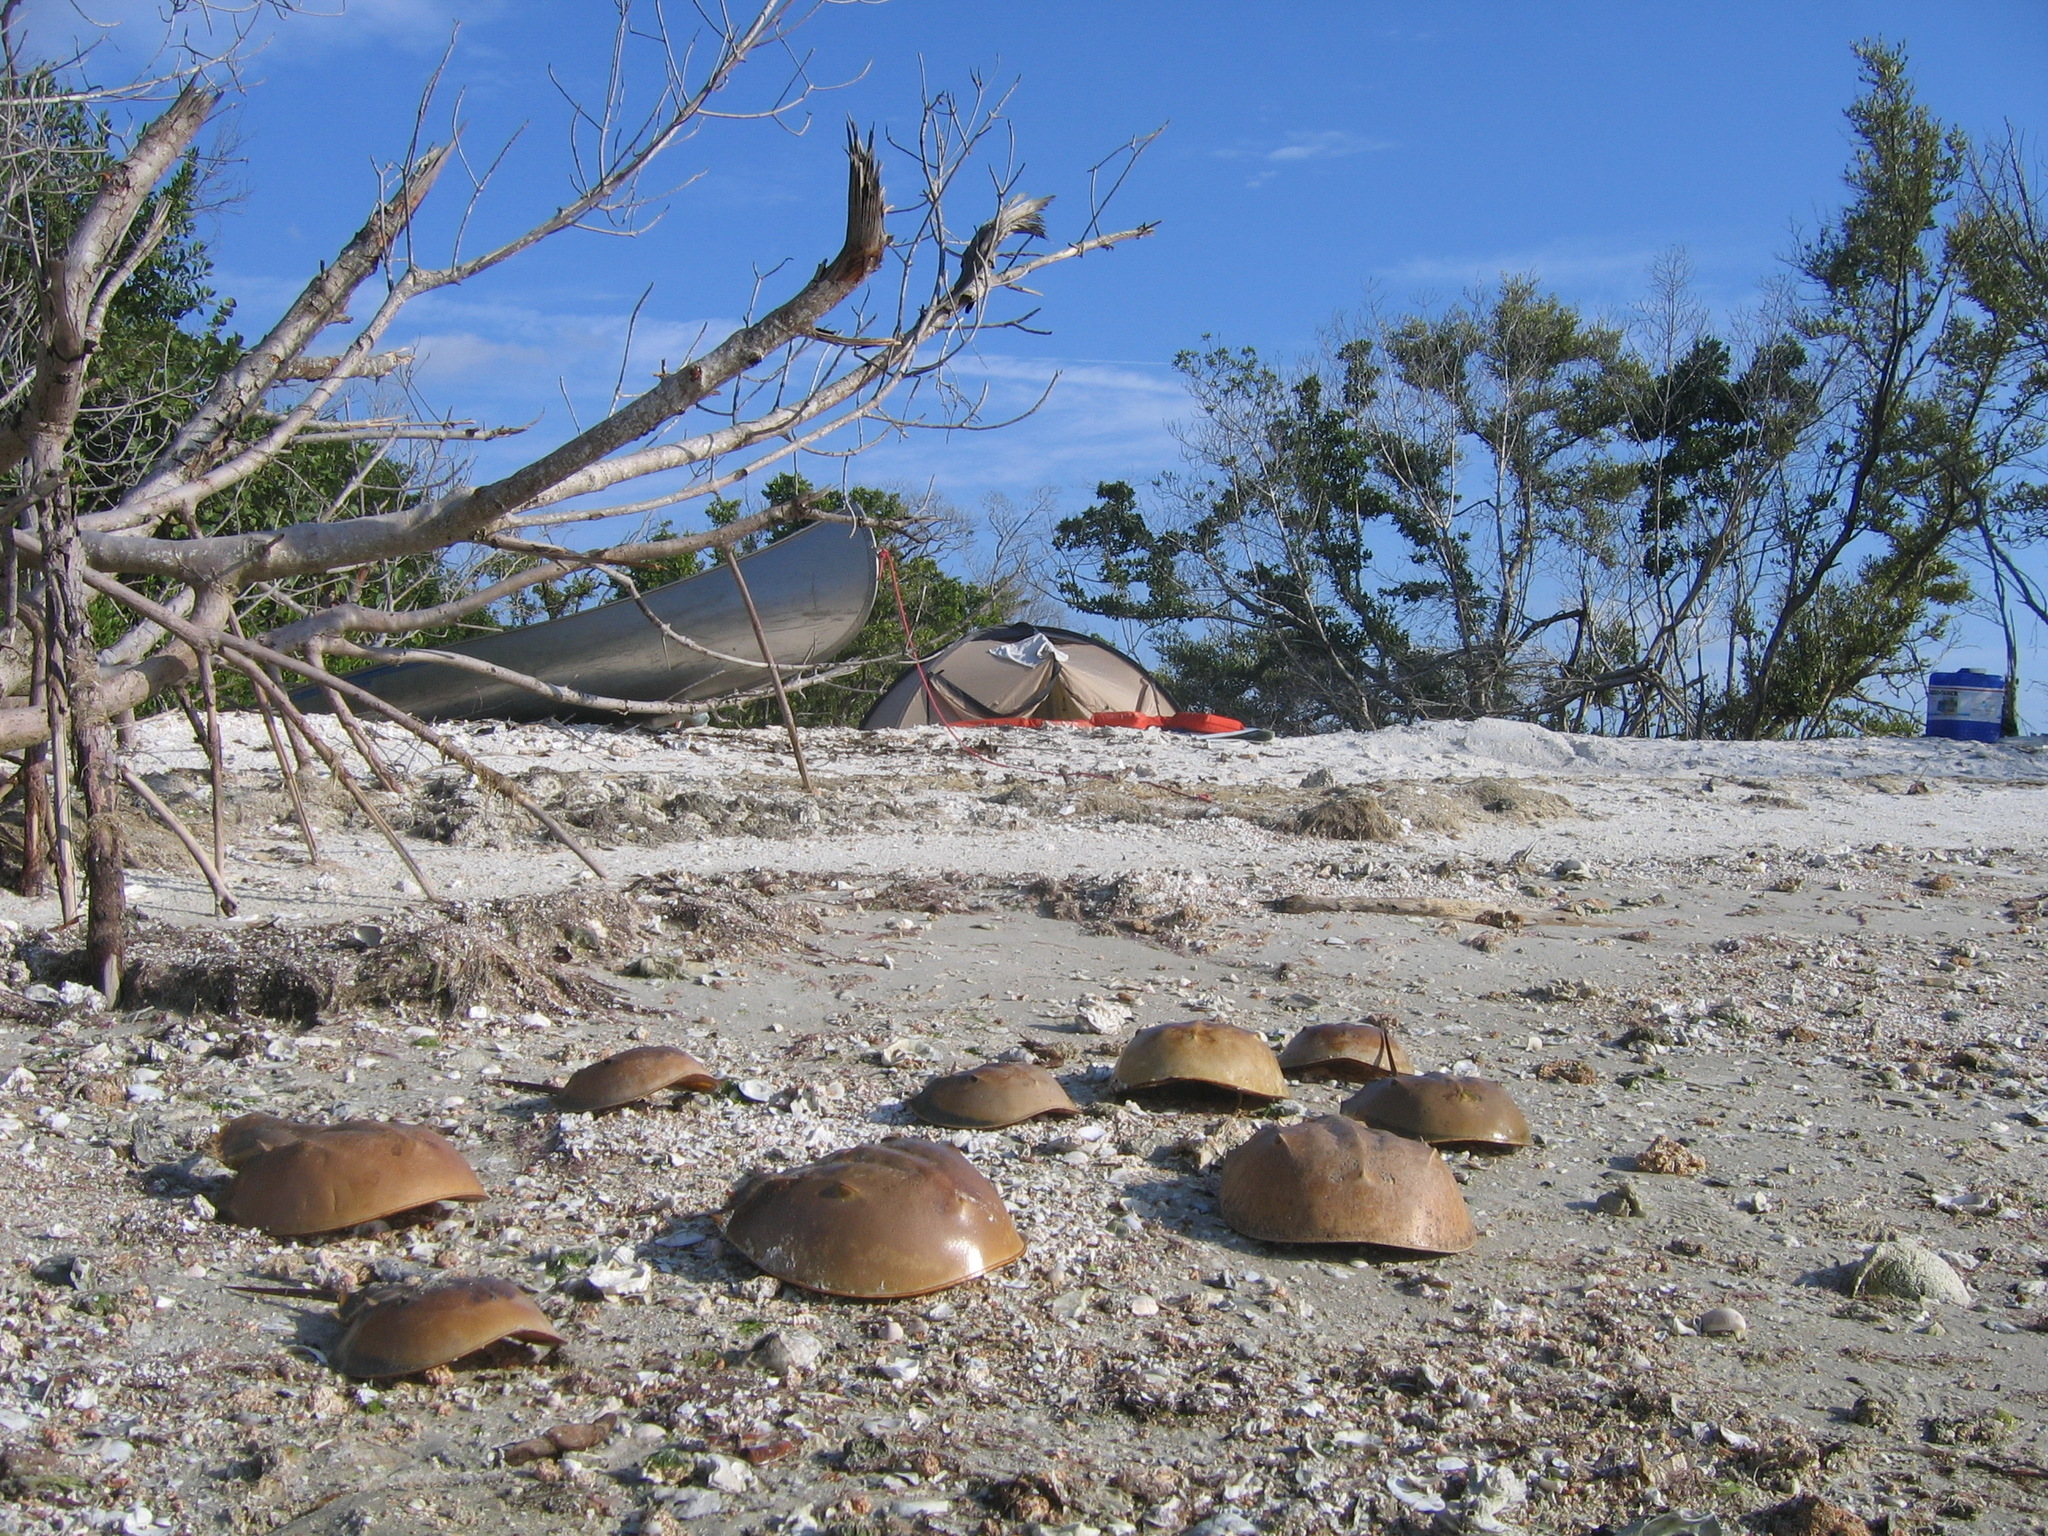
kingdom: Animalia
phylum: Arthropoda
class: Merostomata
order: Xiphosurida
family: Limulidae
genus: Limulus
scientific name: Limulus polyphemus
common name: Horseshoe crab
